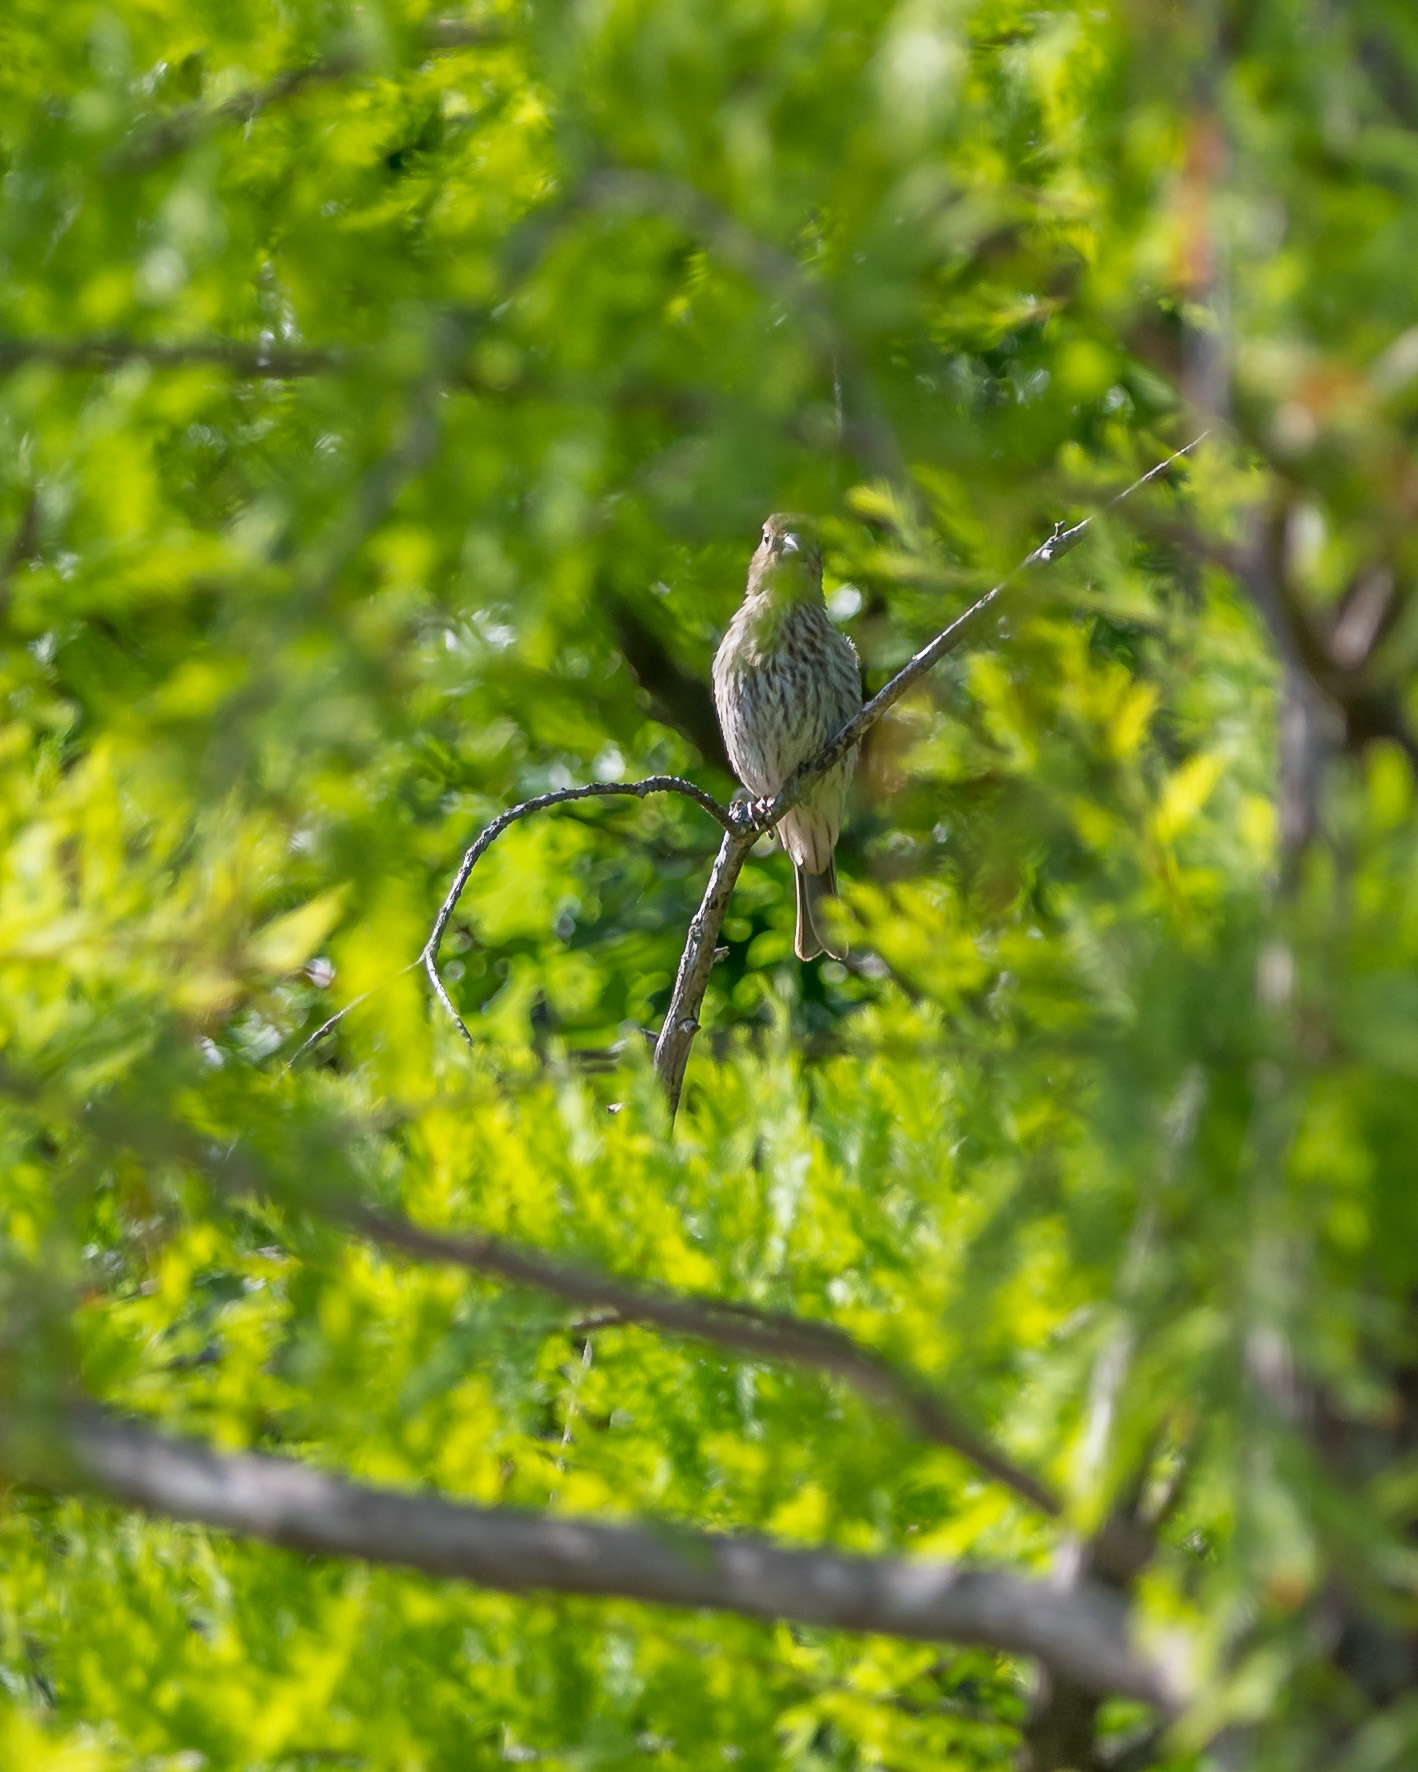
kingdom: Animalia
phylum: Chordata
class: Aves
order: Passeriformes
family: Fringillidae
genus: Haemorhous
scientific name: Haemorhous mexicanus
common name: House finch
